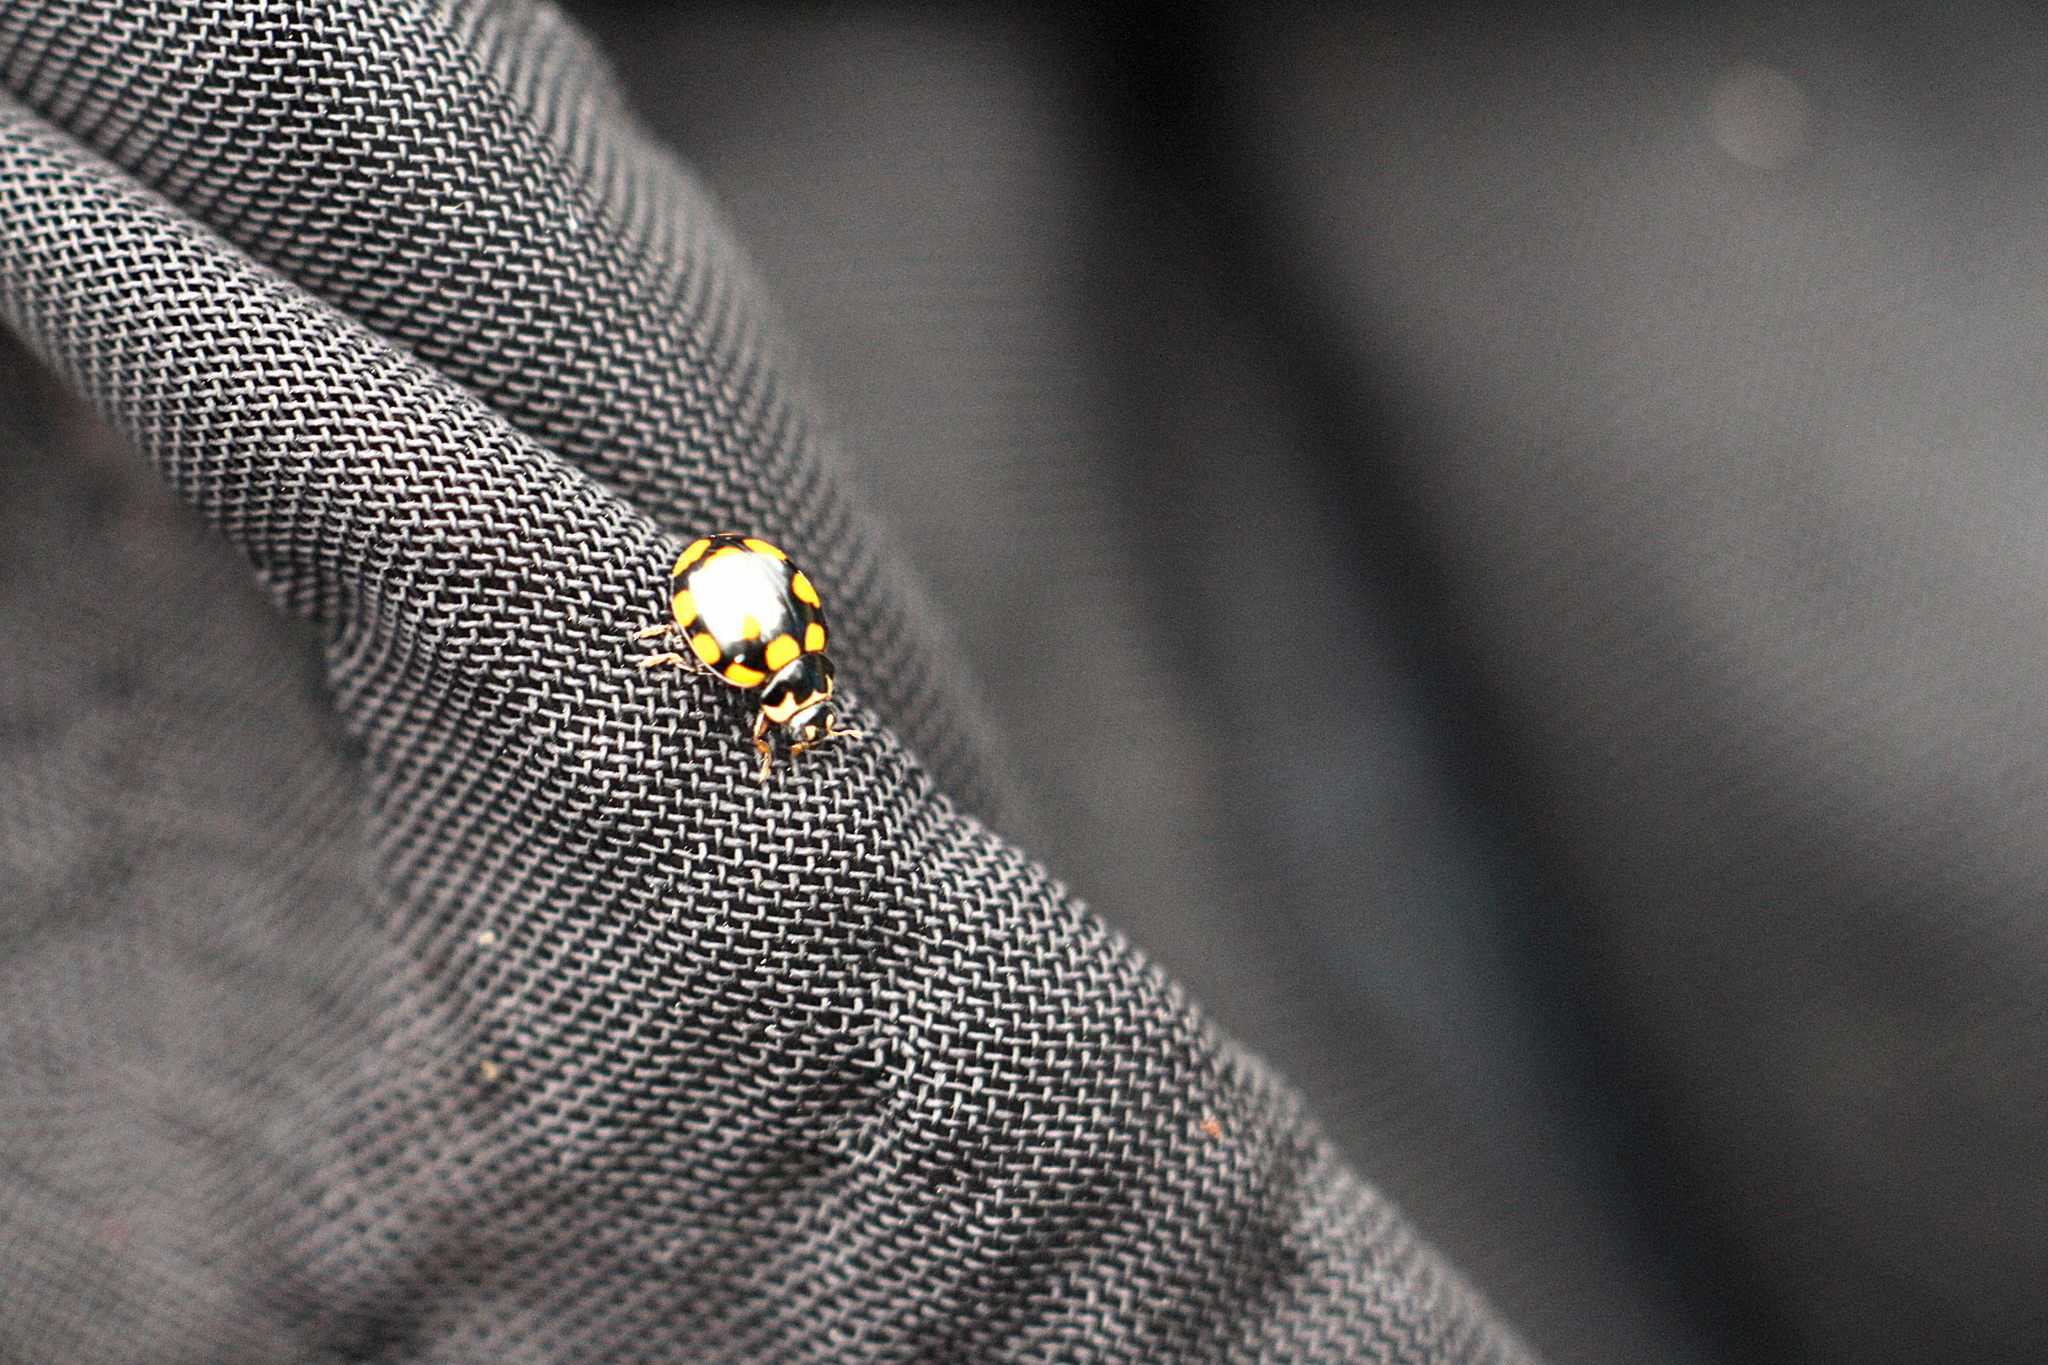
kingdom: Animalia
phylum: Arthropoda
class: Insecta
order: Coleoptera
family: Coccinellidae
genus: Coccinula
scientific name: Coccinula quatuordecimpustulata
